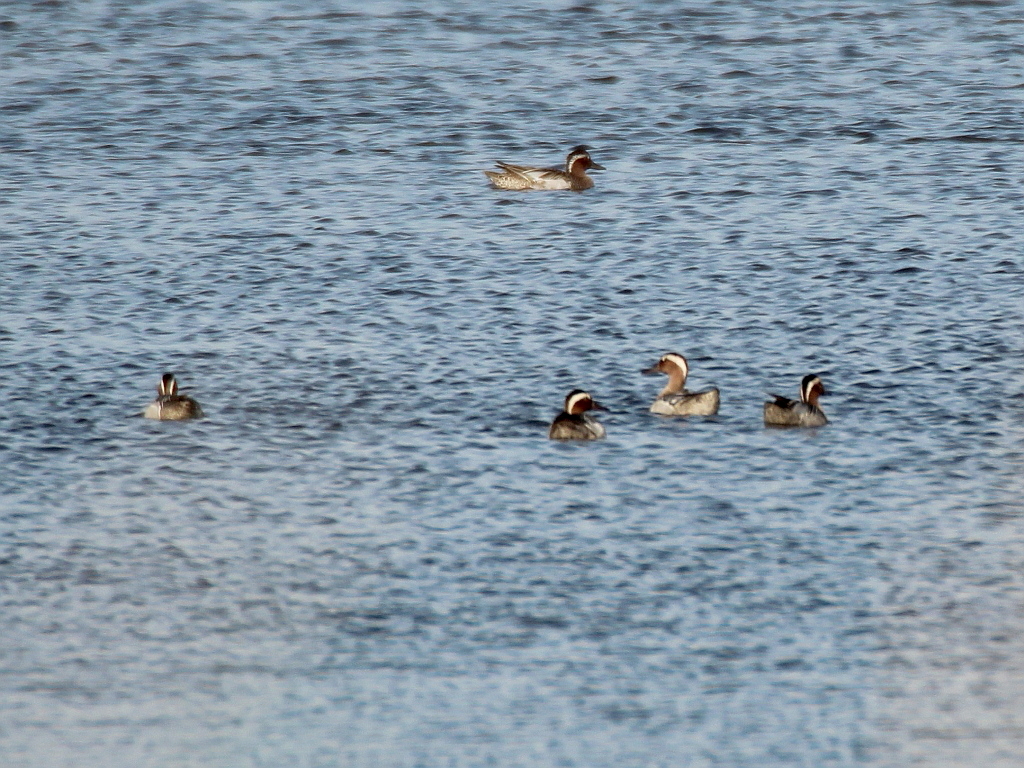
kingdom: Animalia
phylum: Chordata
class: Aves
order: Anseriformes
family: Anatidae
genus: Spatula
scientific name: Spatula querquedula
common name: Garganey
